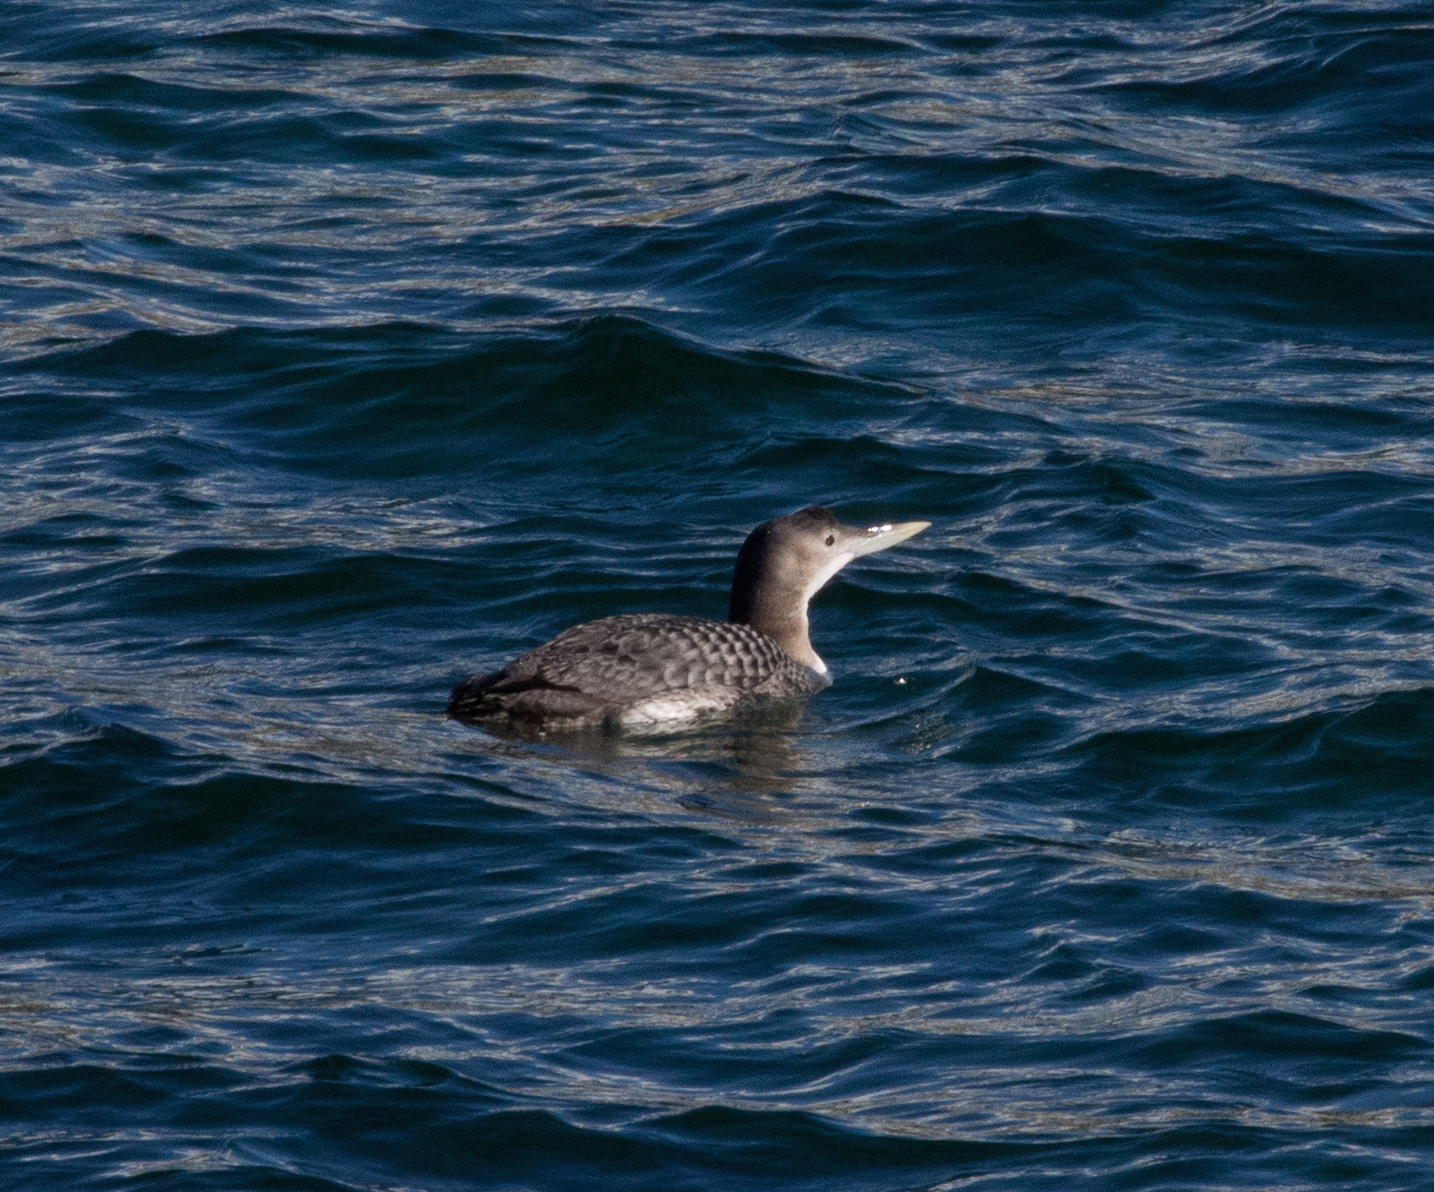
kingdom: Animalia
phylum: Chordata
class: Aves
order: Gaviiformes
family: Gaviidae
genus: Gavia
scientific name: Gavia adamsii
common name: Yellow-billed loon
